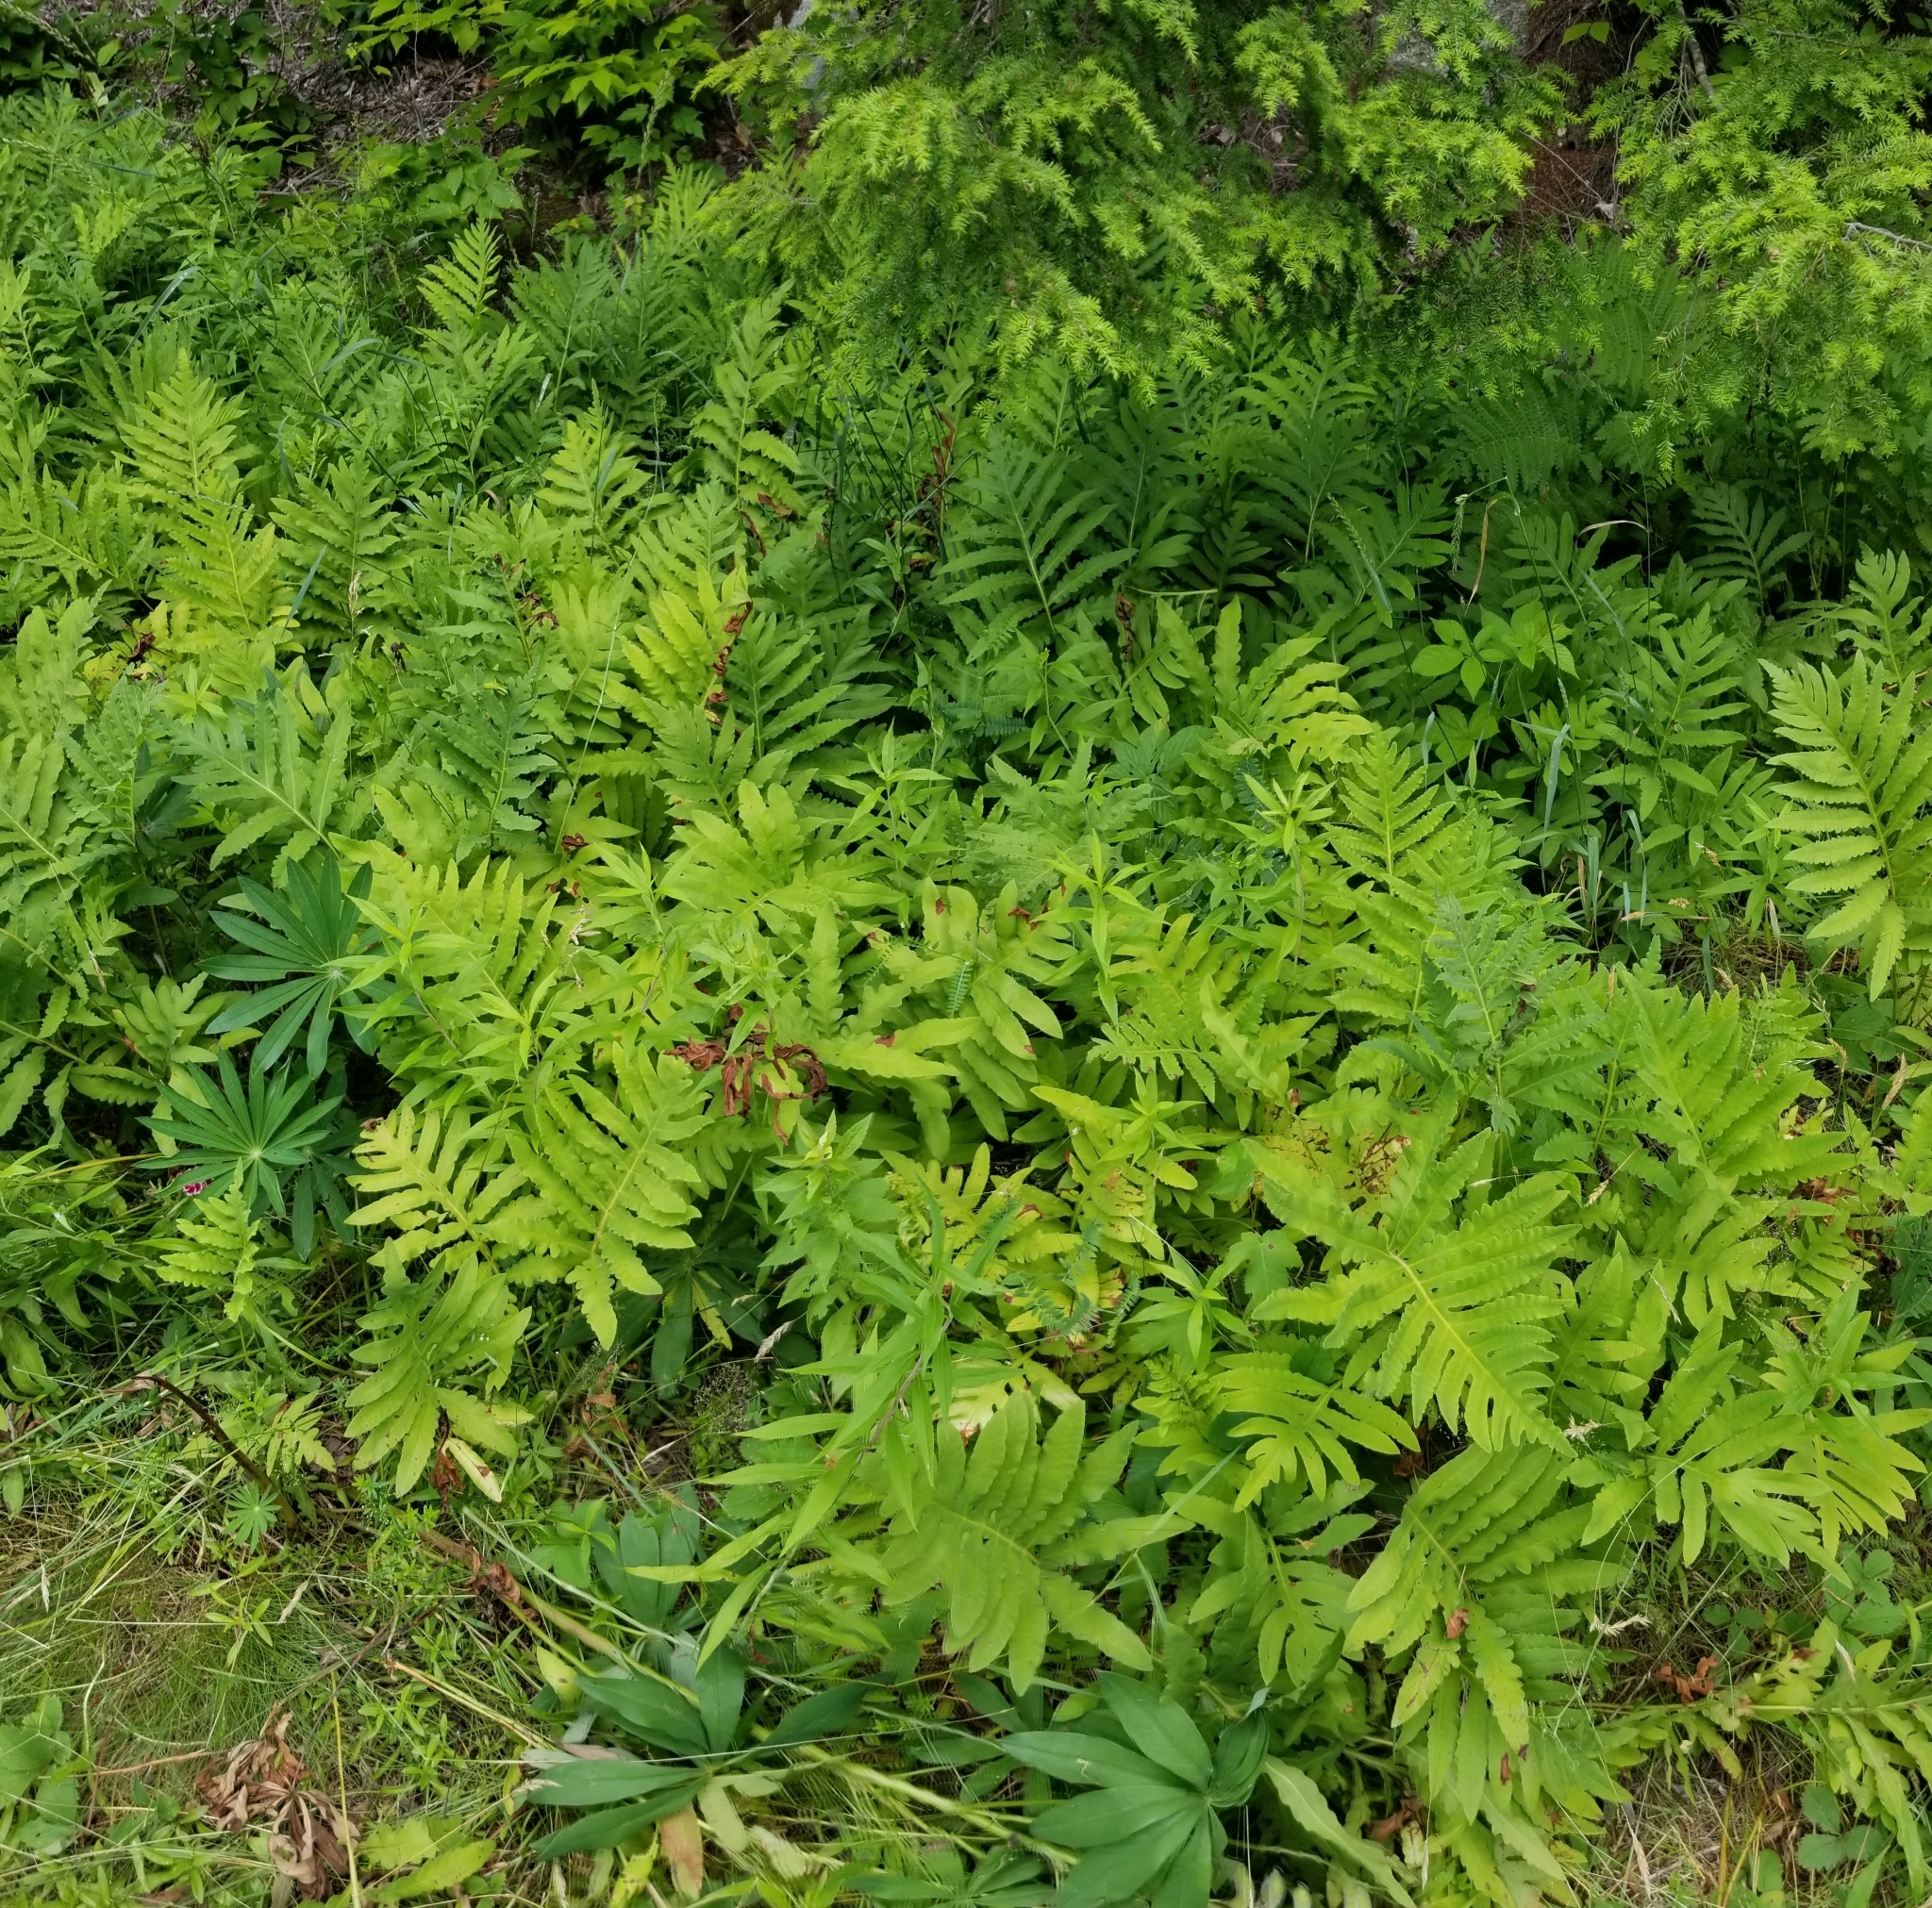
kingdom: Plantae
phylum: Tracheophyta
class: Polypodiopsida
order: Polypodiales
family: Onocleaceae
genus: Onoclea
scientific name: Onoclea sensibilis
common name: Sensitive fern
